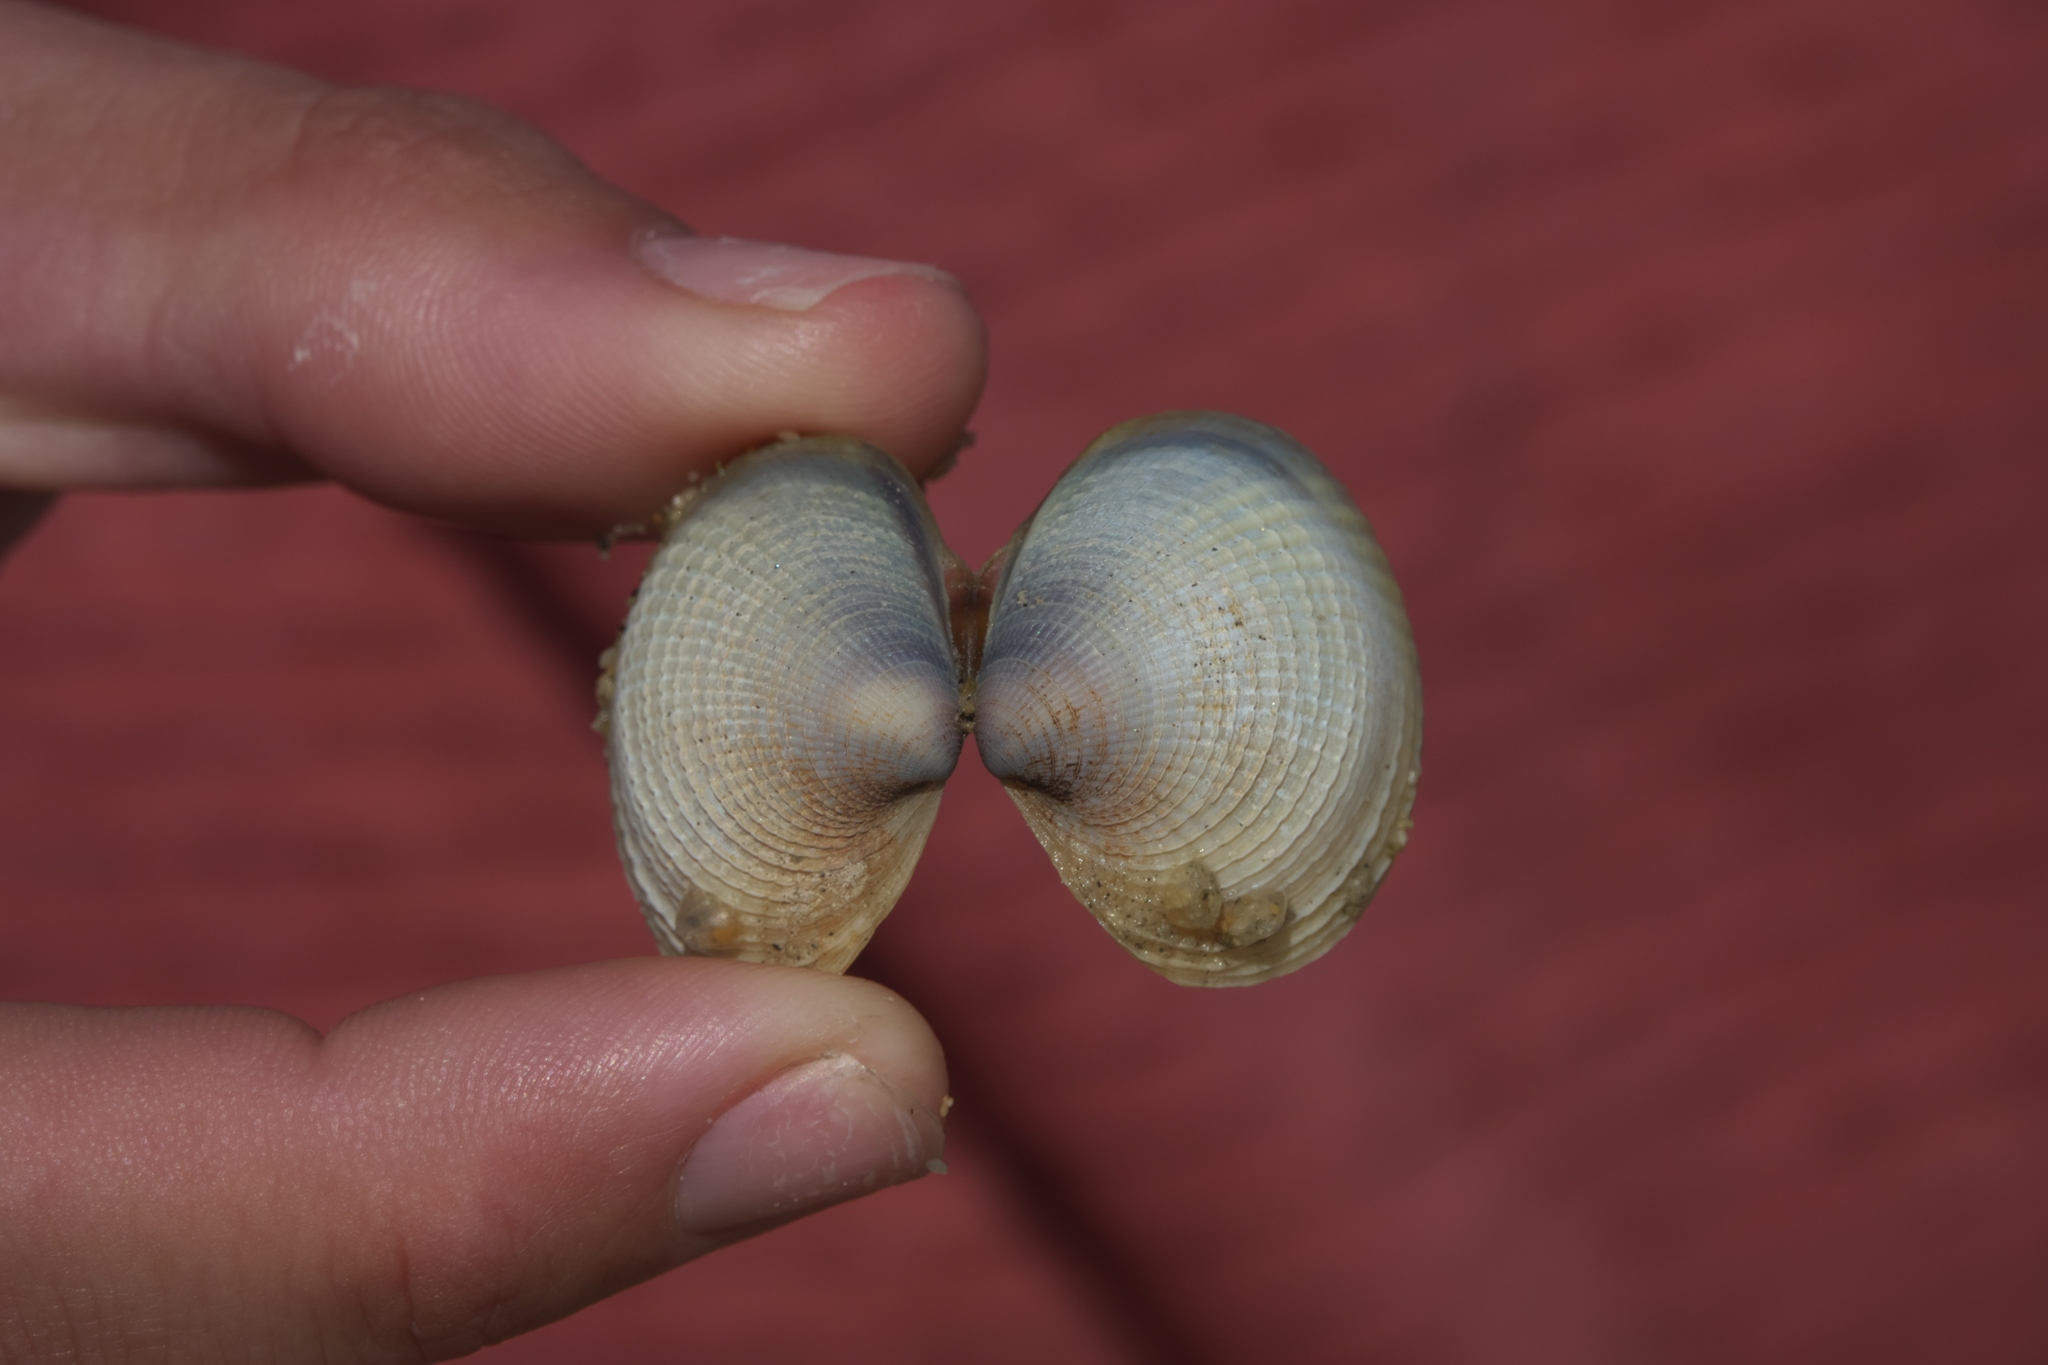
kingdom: Animalia
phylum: Mollusca
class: Bivalvia
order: Venerida
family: Veneridae
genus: Austrovenus
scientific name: Austrovenus stutchburyi
